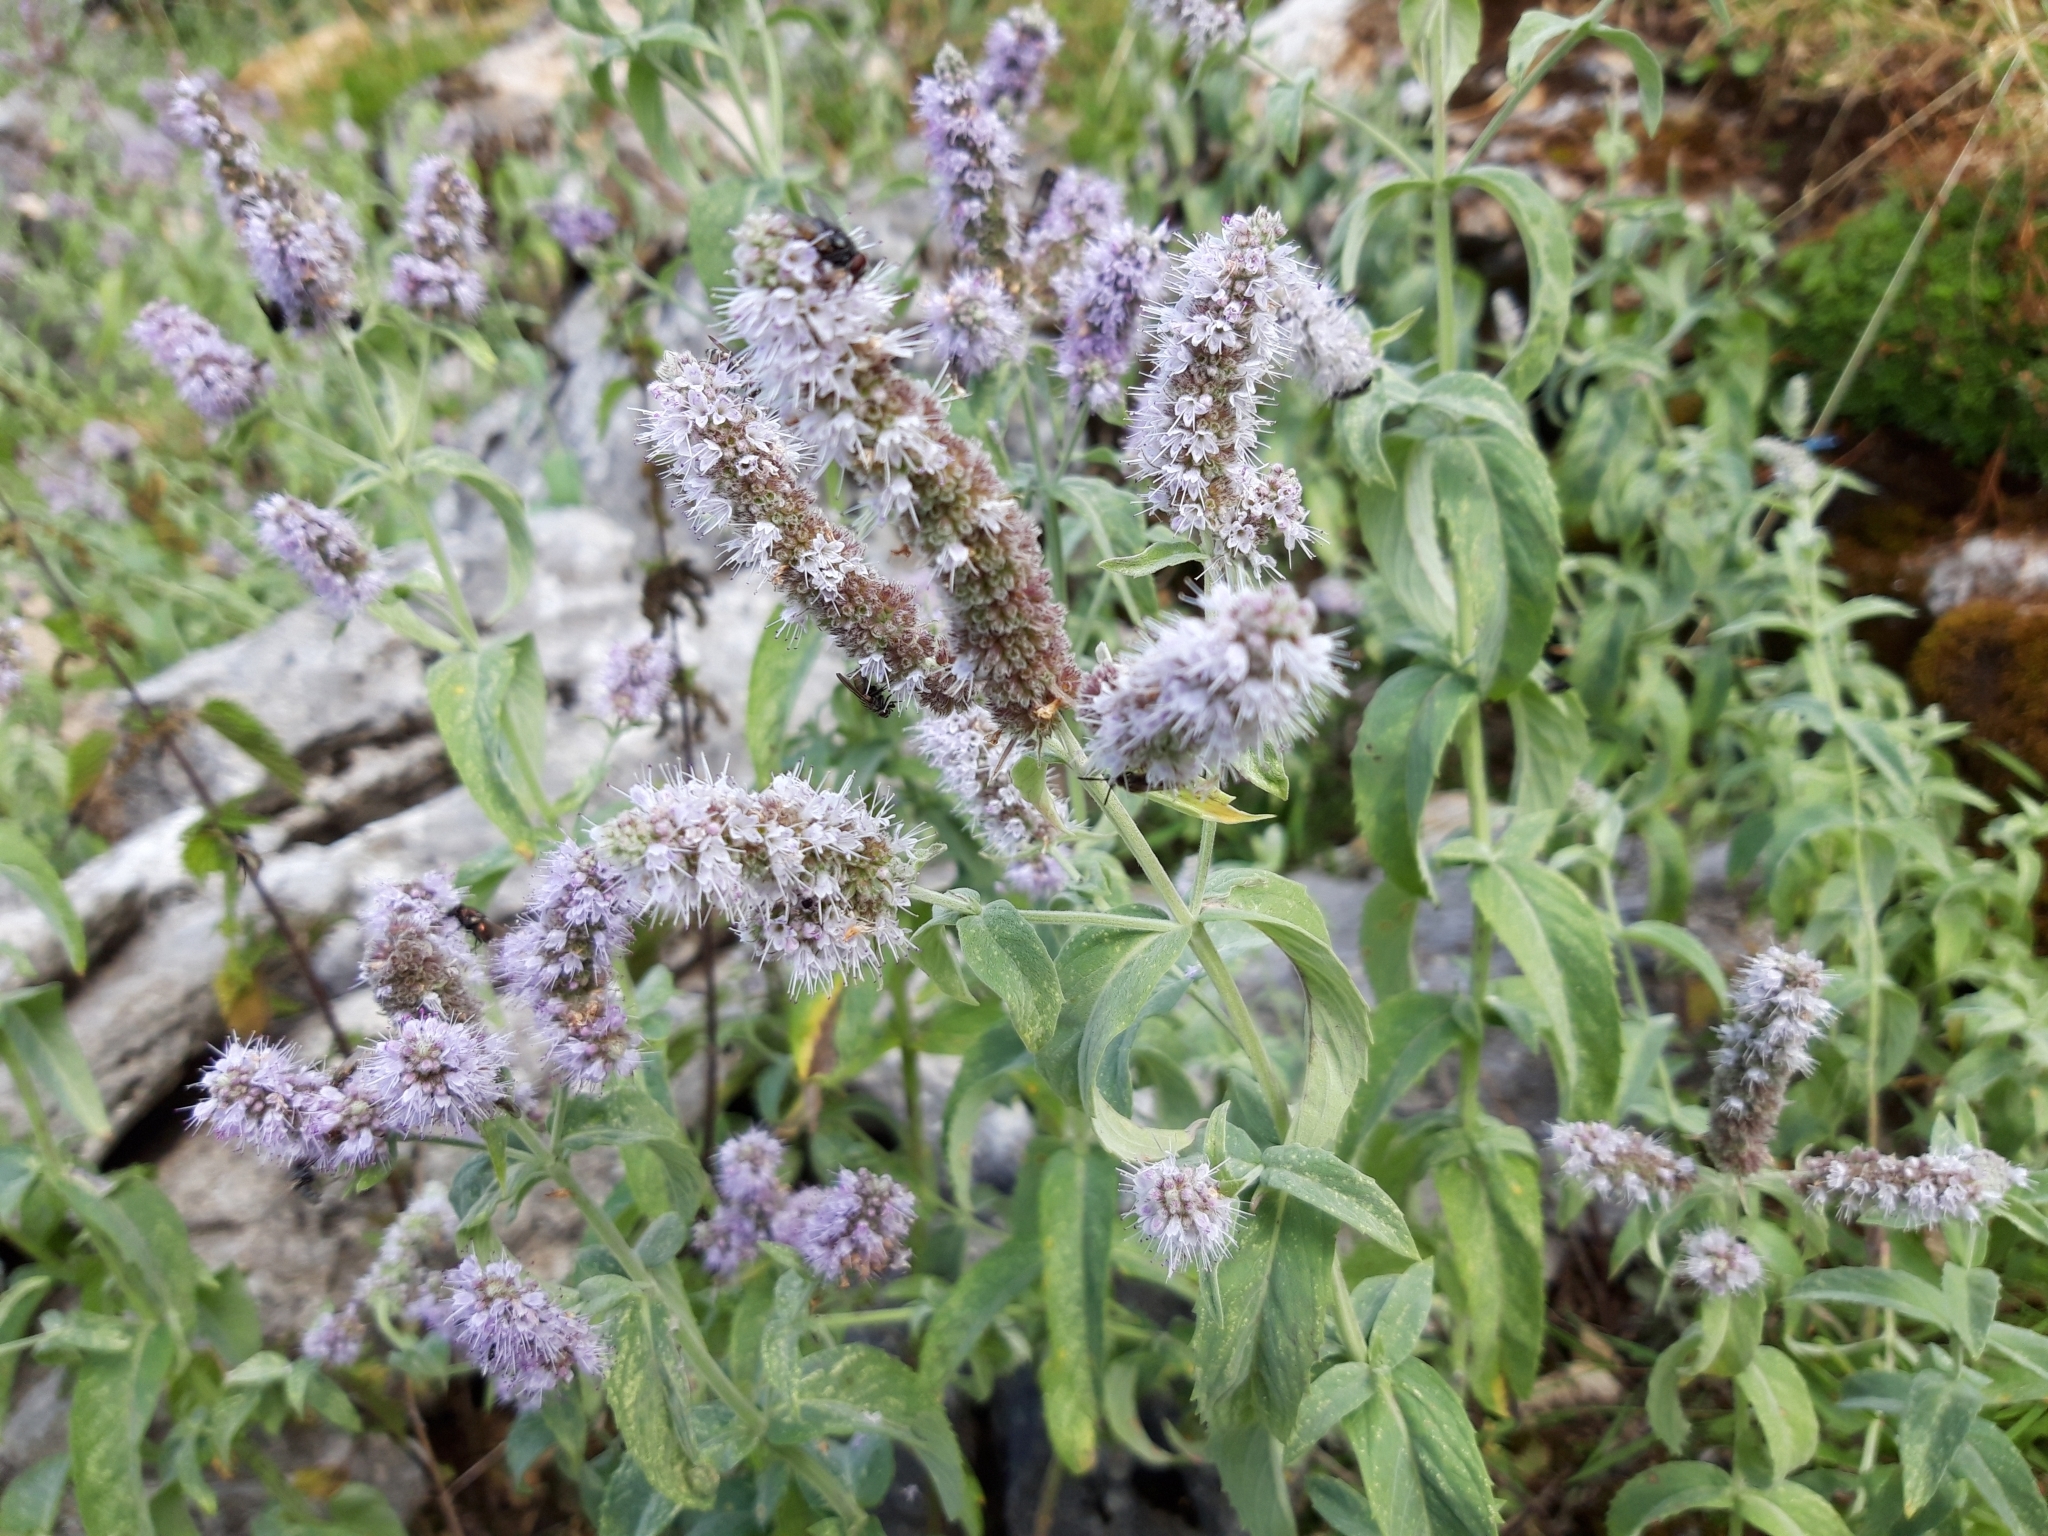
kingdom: Plantae
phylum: Tracheophyta
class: Magnoliopsida
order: Lamiales
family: Lamiaceae
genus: Mentha
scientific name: Mentha longifolia
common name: Horse mint
